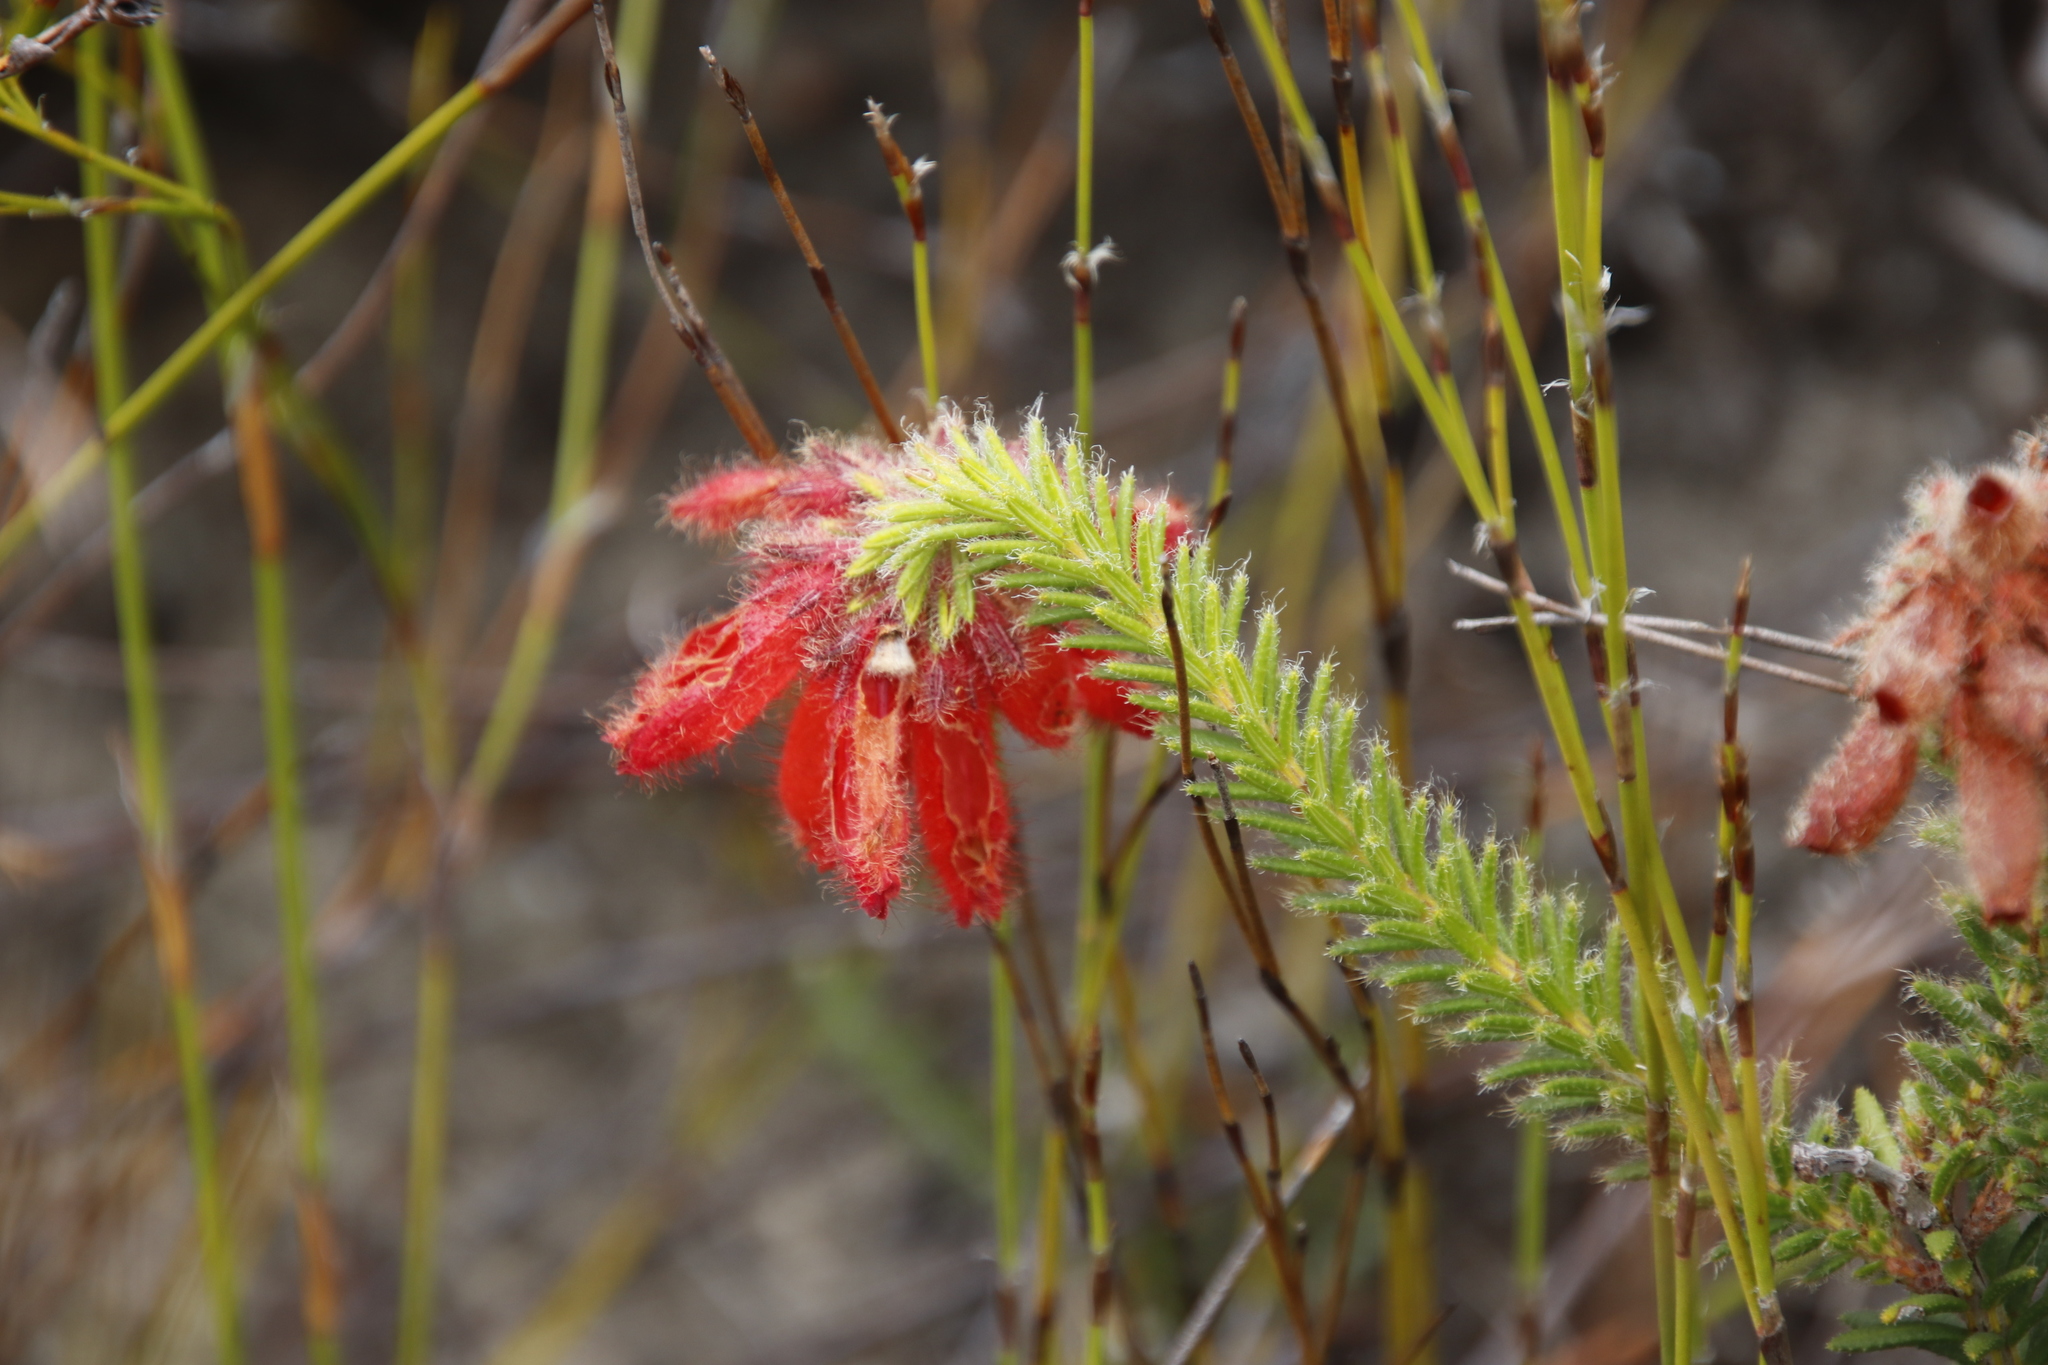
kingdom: Plantae
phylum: Tracheophyta
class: Magnoliopsida
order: Ericales
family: Ericaceae
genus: Erica
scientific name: Erica cerinthoides
